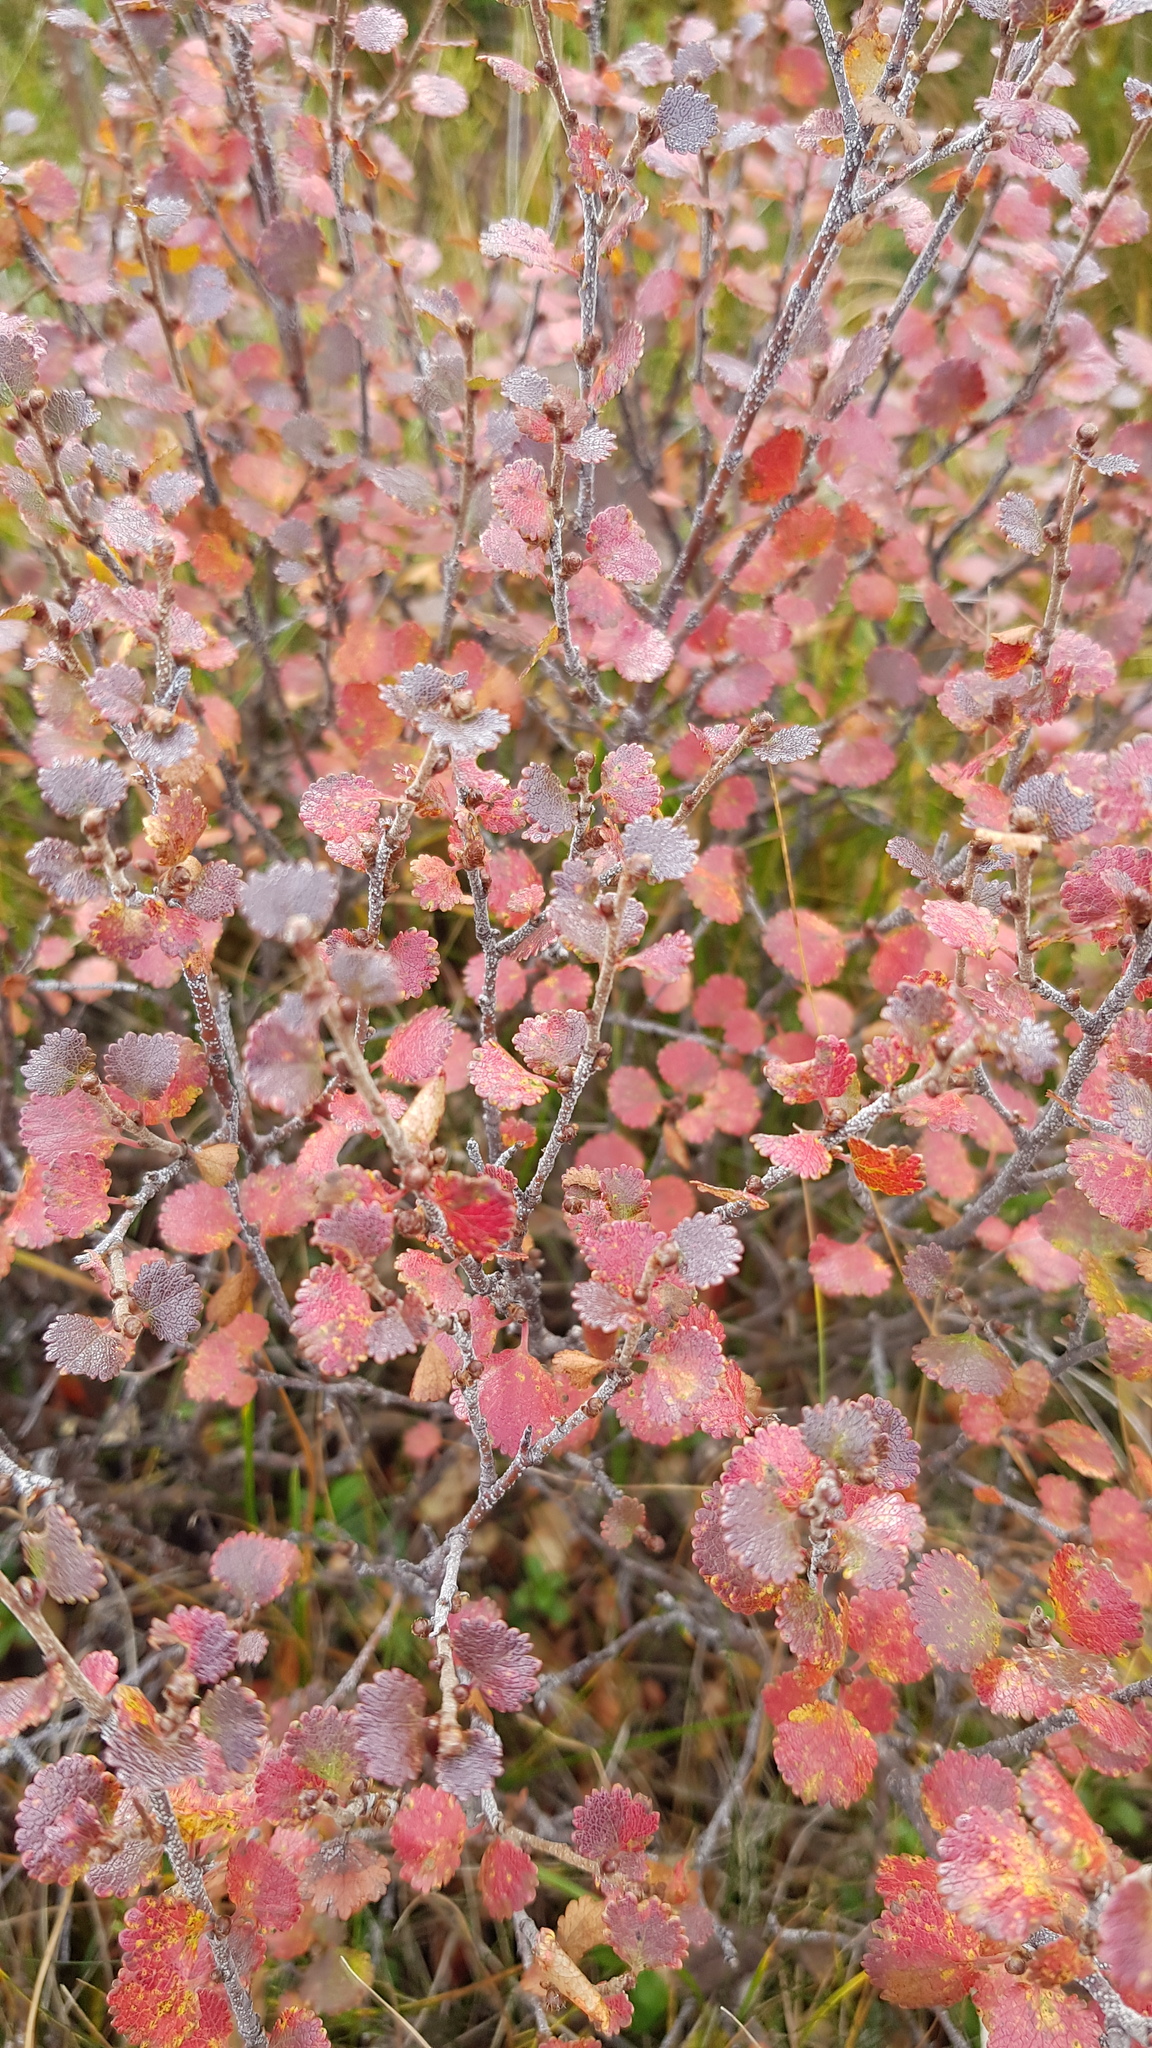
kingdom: Plantae
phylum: Tracheophyta
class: Magnoliopsida
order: Fagales
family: Betulaceae
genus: Betula
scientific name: Betula glandulosa
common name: Dwarf birch
